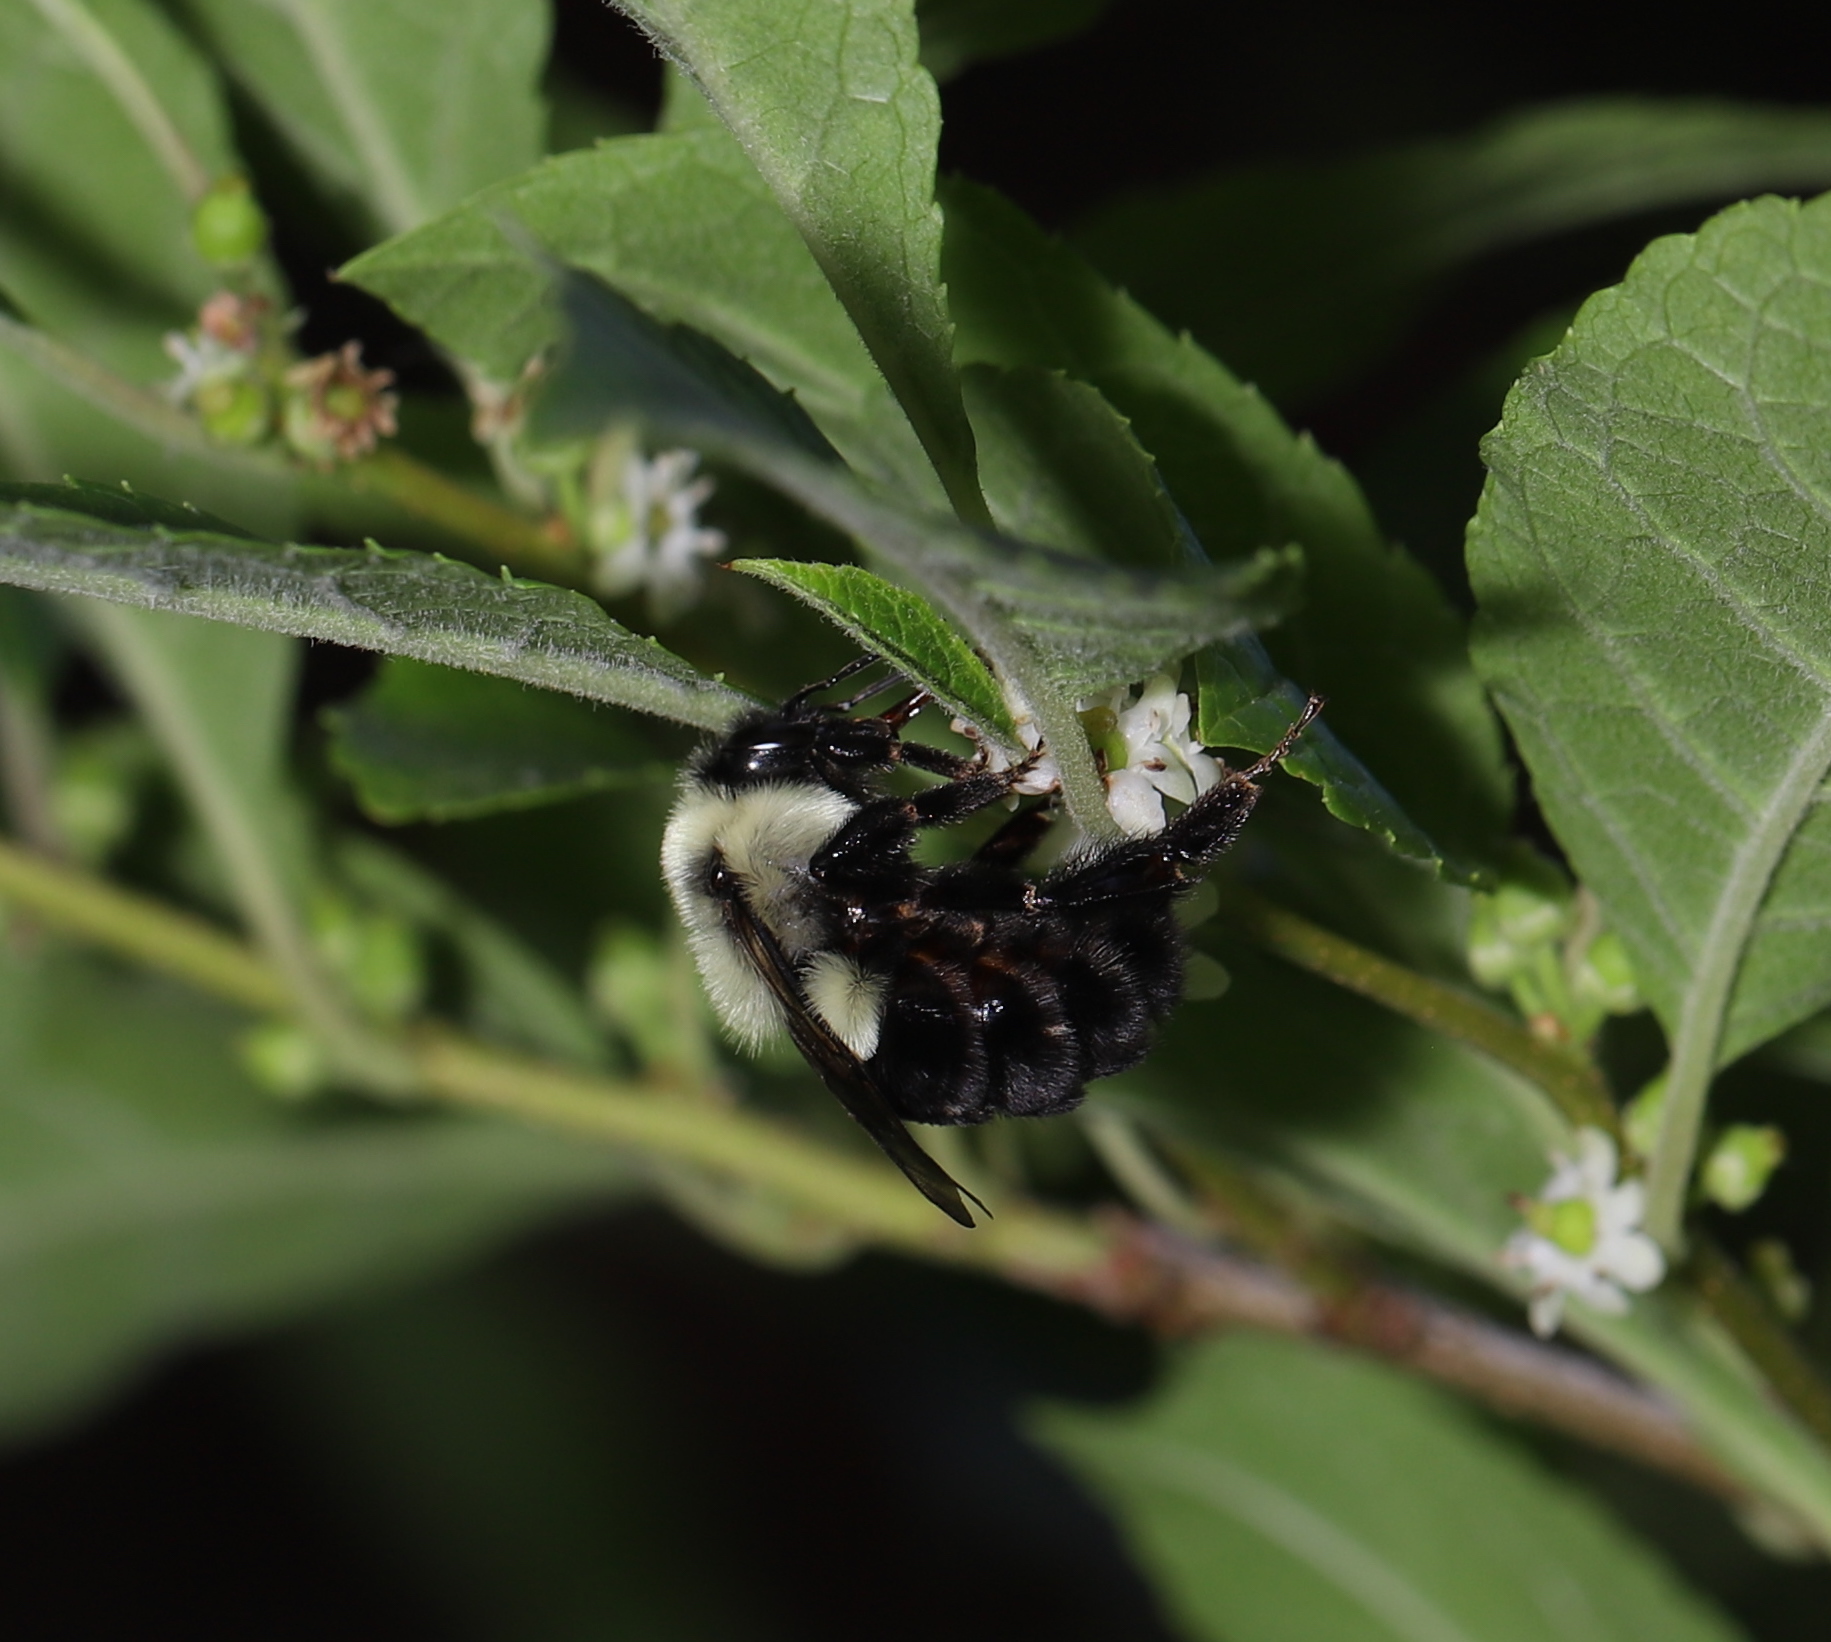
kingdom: Animalia
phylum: Arthropoda
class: Insecta
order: Hymenoptera
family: Apidae
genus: Bombus
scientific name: Bombus impatiens
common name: Common eastern bumble bee
